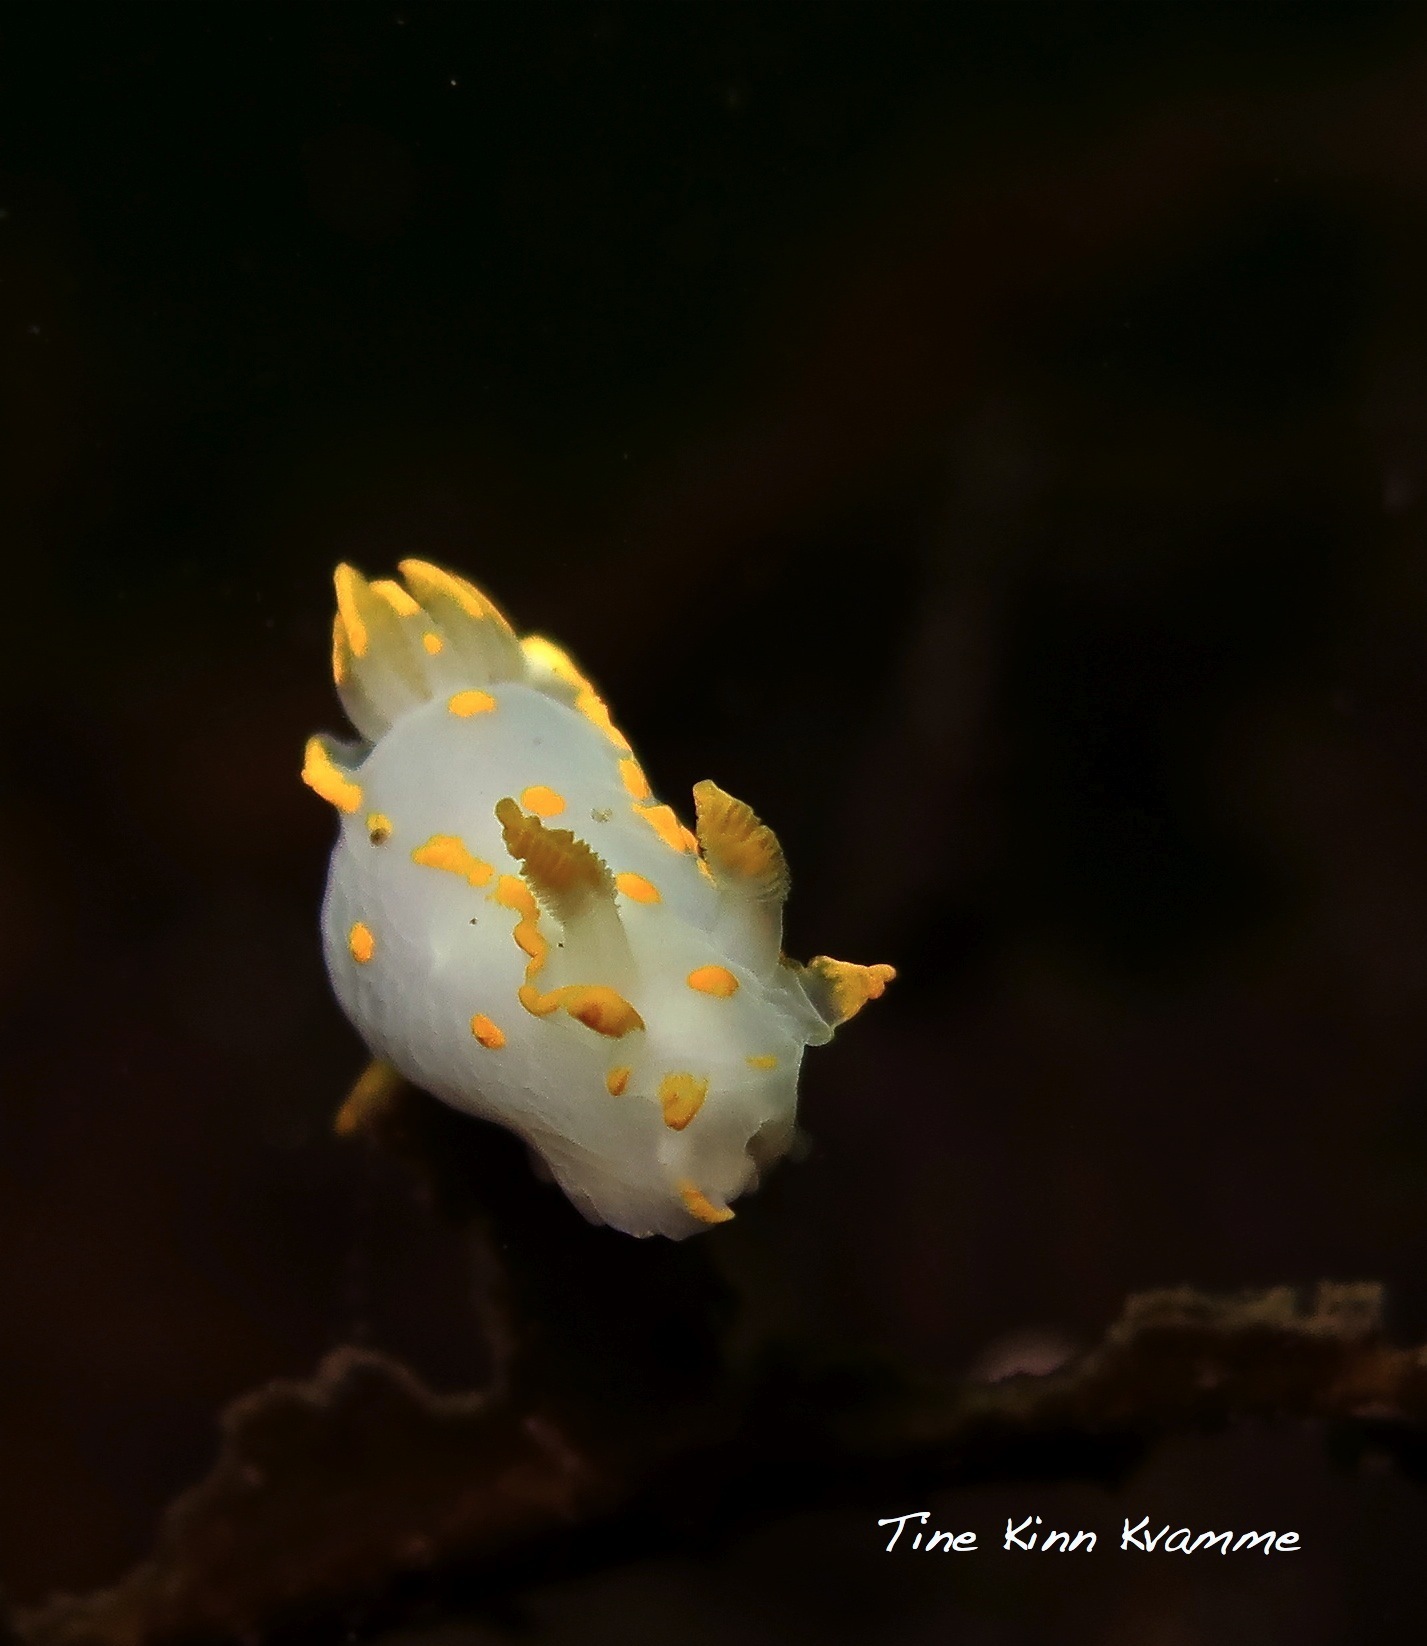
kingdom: Animalia
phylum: Mollusca
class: Gastropoda
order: Nudibranchia
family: Polyceridae
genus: Polycera
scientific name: Polycera quadrilineata
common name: Four-striped polycera
